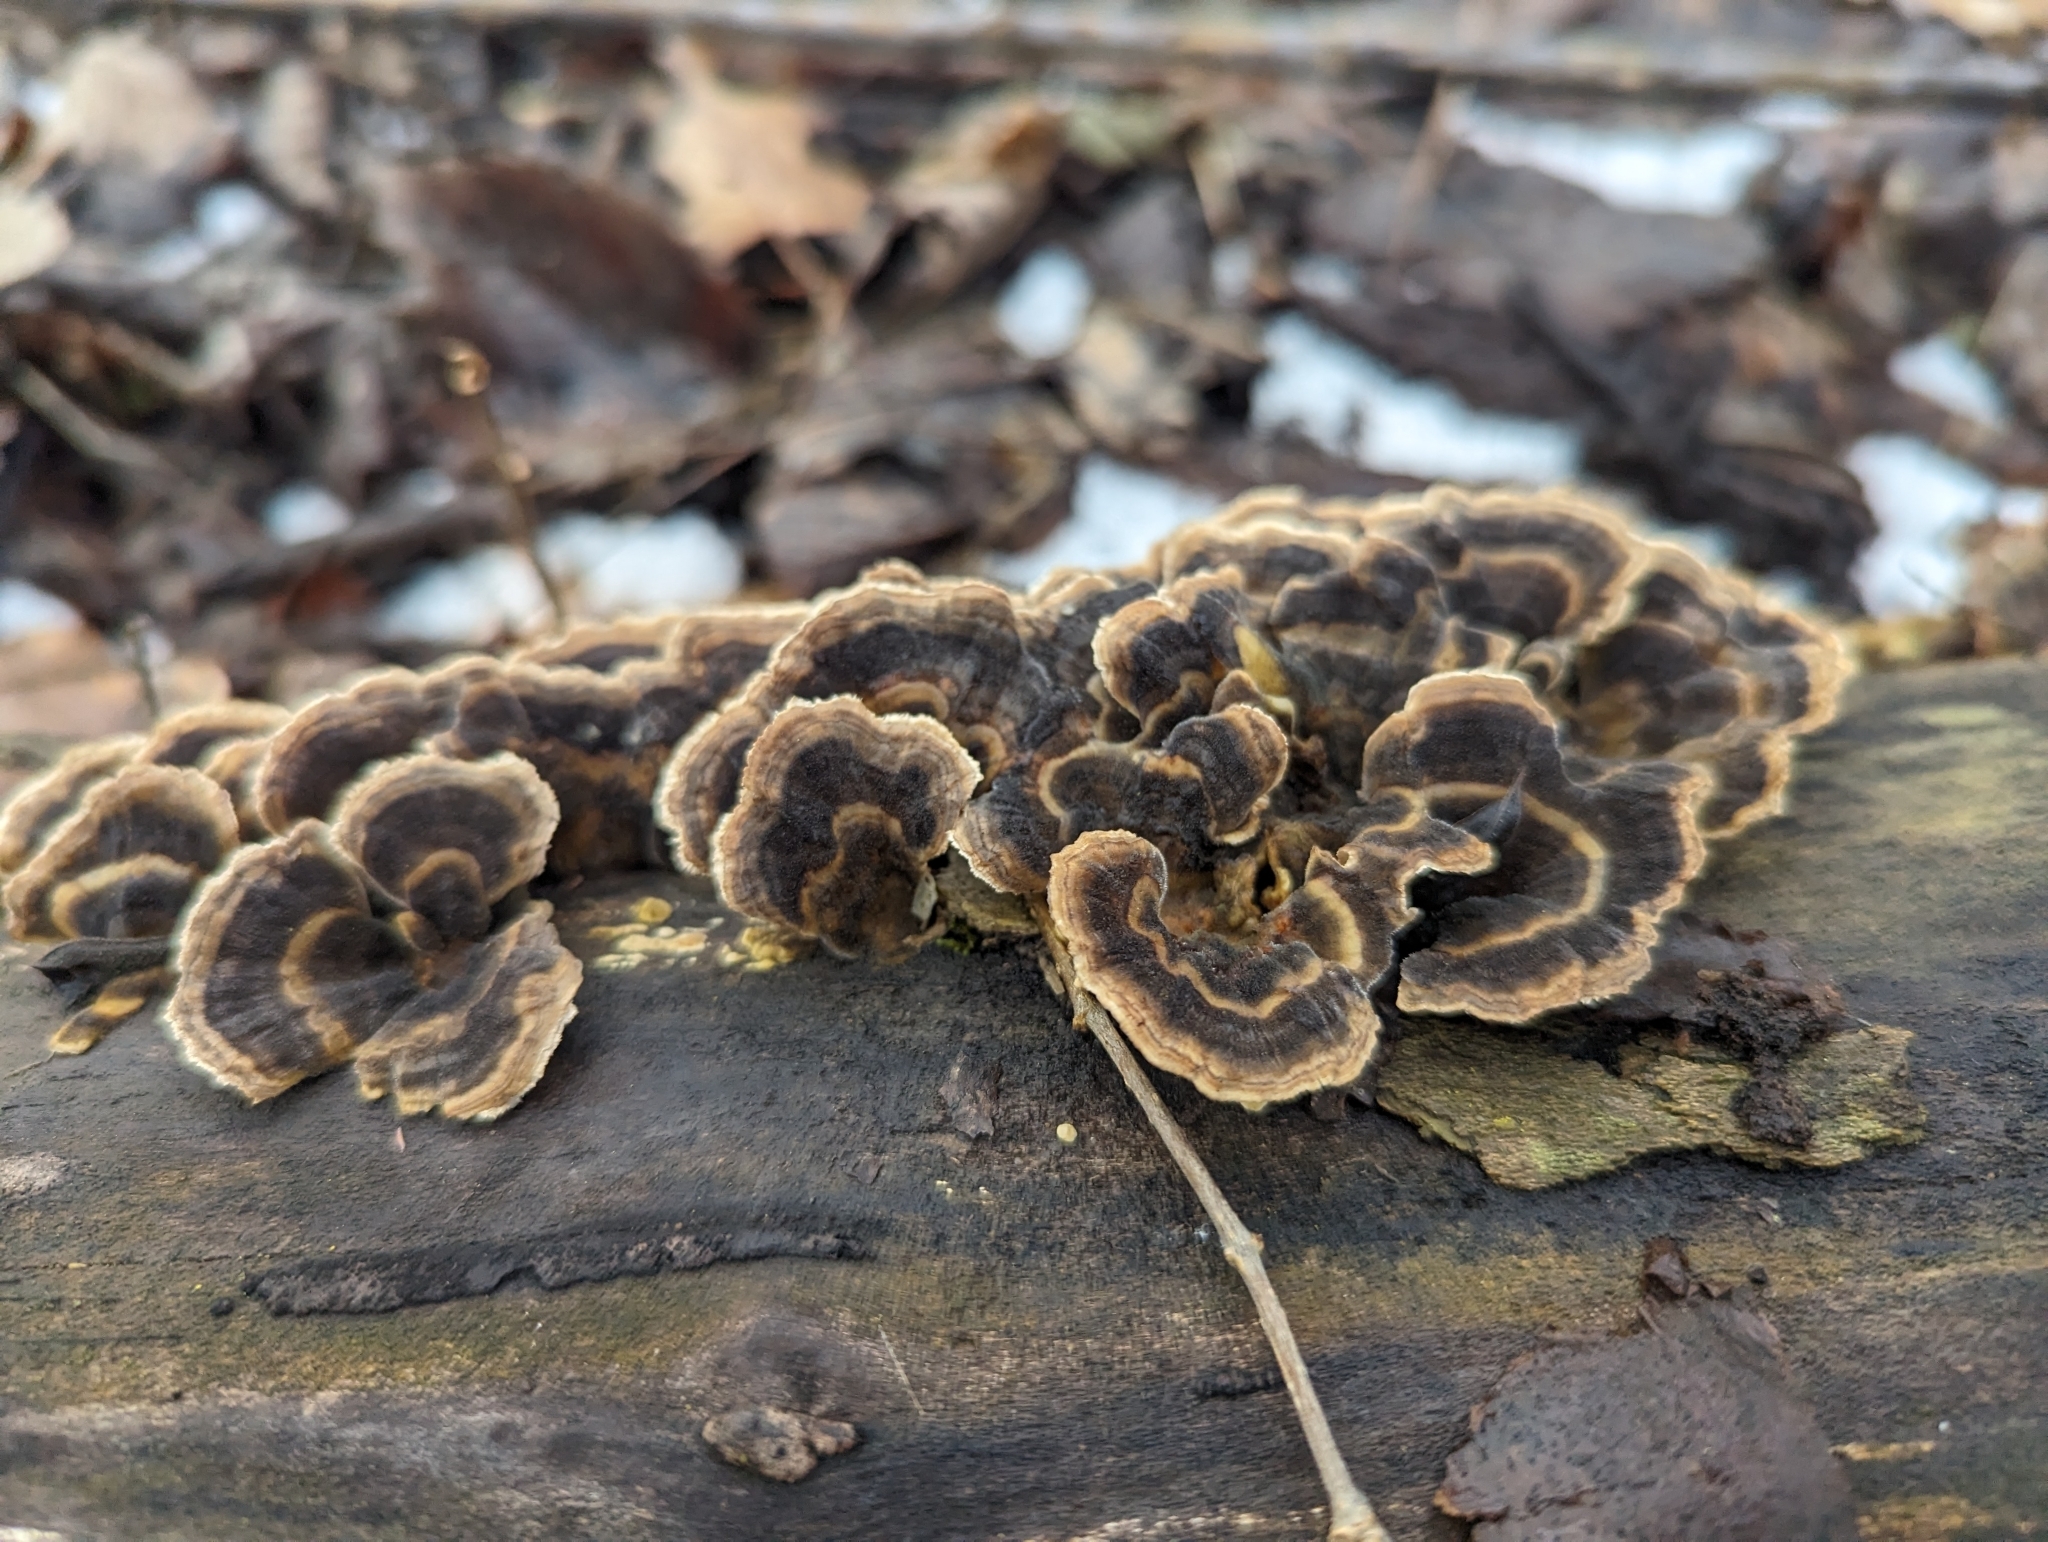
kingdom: Fungi
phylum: Basidiomycota
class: Agaricomycetes
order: Polyporales
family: Polyporaceae
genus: Trametes
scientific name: Trametes versicolor
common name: Turkeytail
